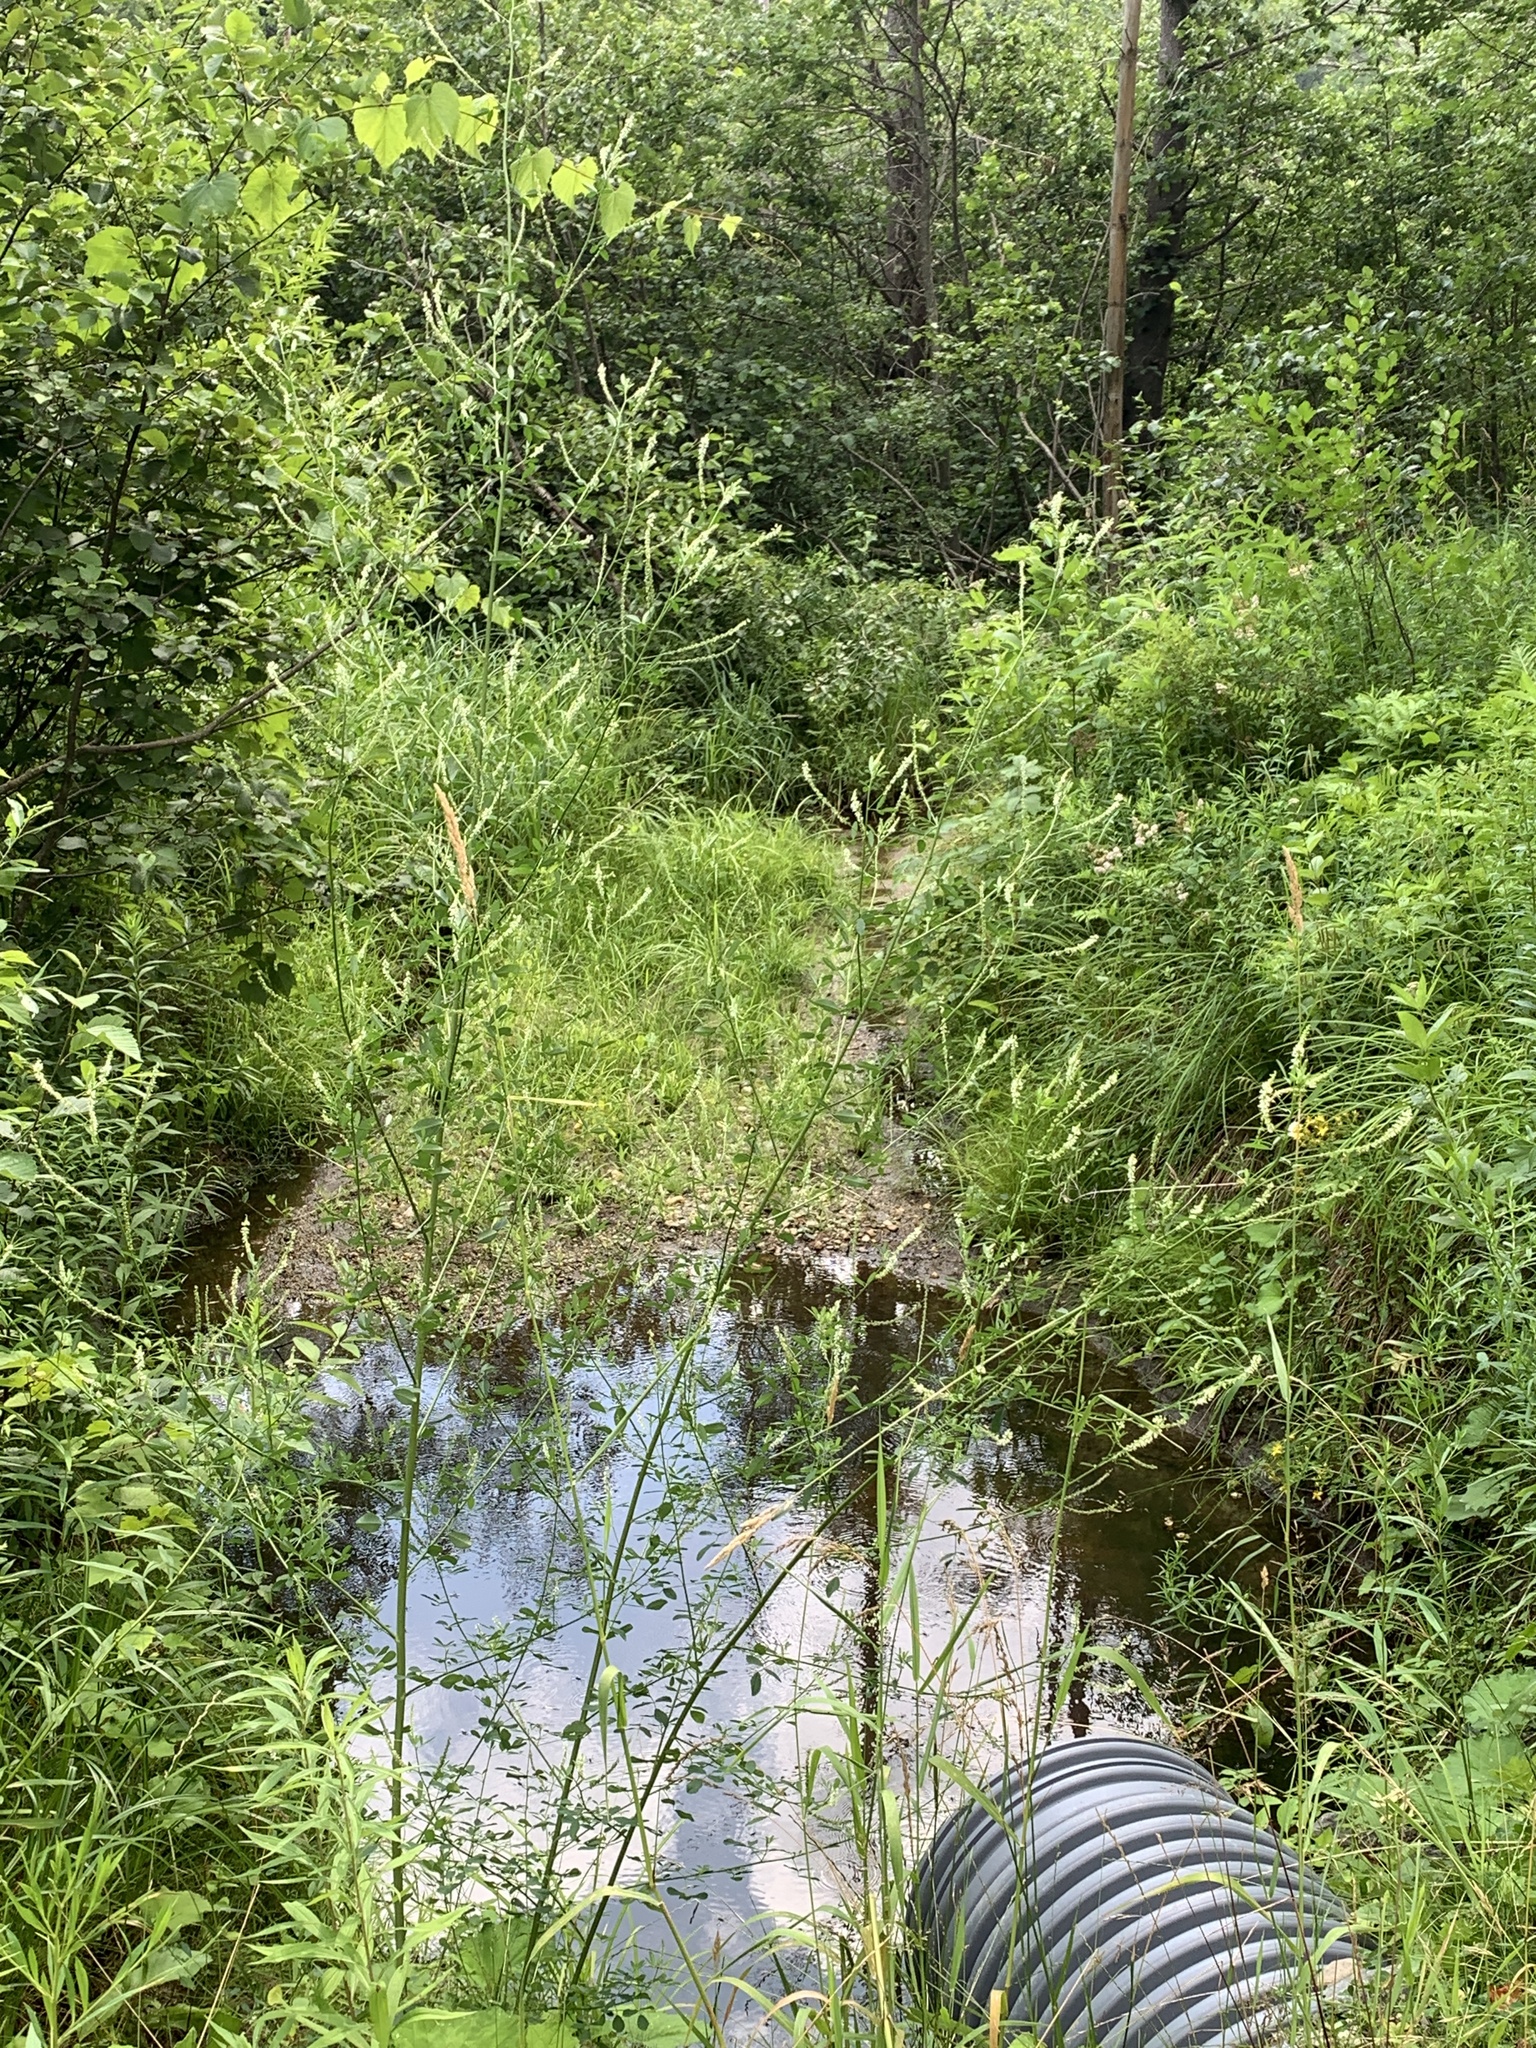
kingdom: Plantae
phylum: Tracheophyta
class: Magnoliopsida
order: Fabales
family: Fabaceae
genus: Melilotus
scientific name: Melilotus albus
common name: White melilot
